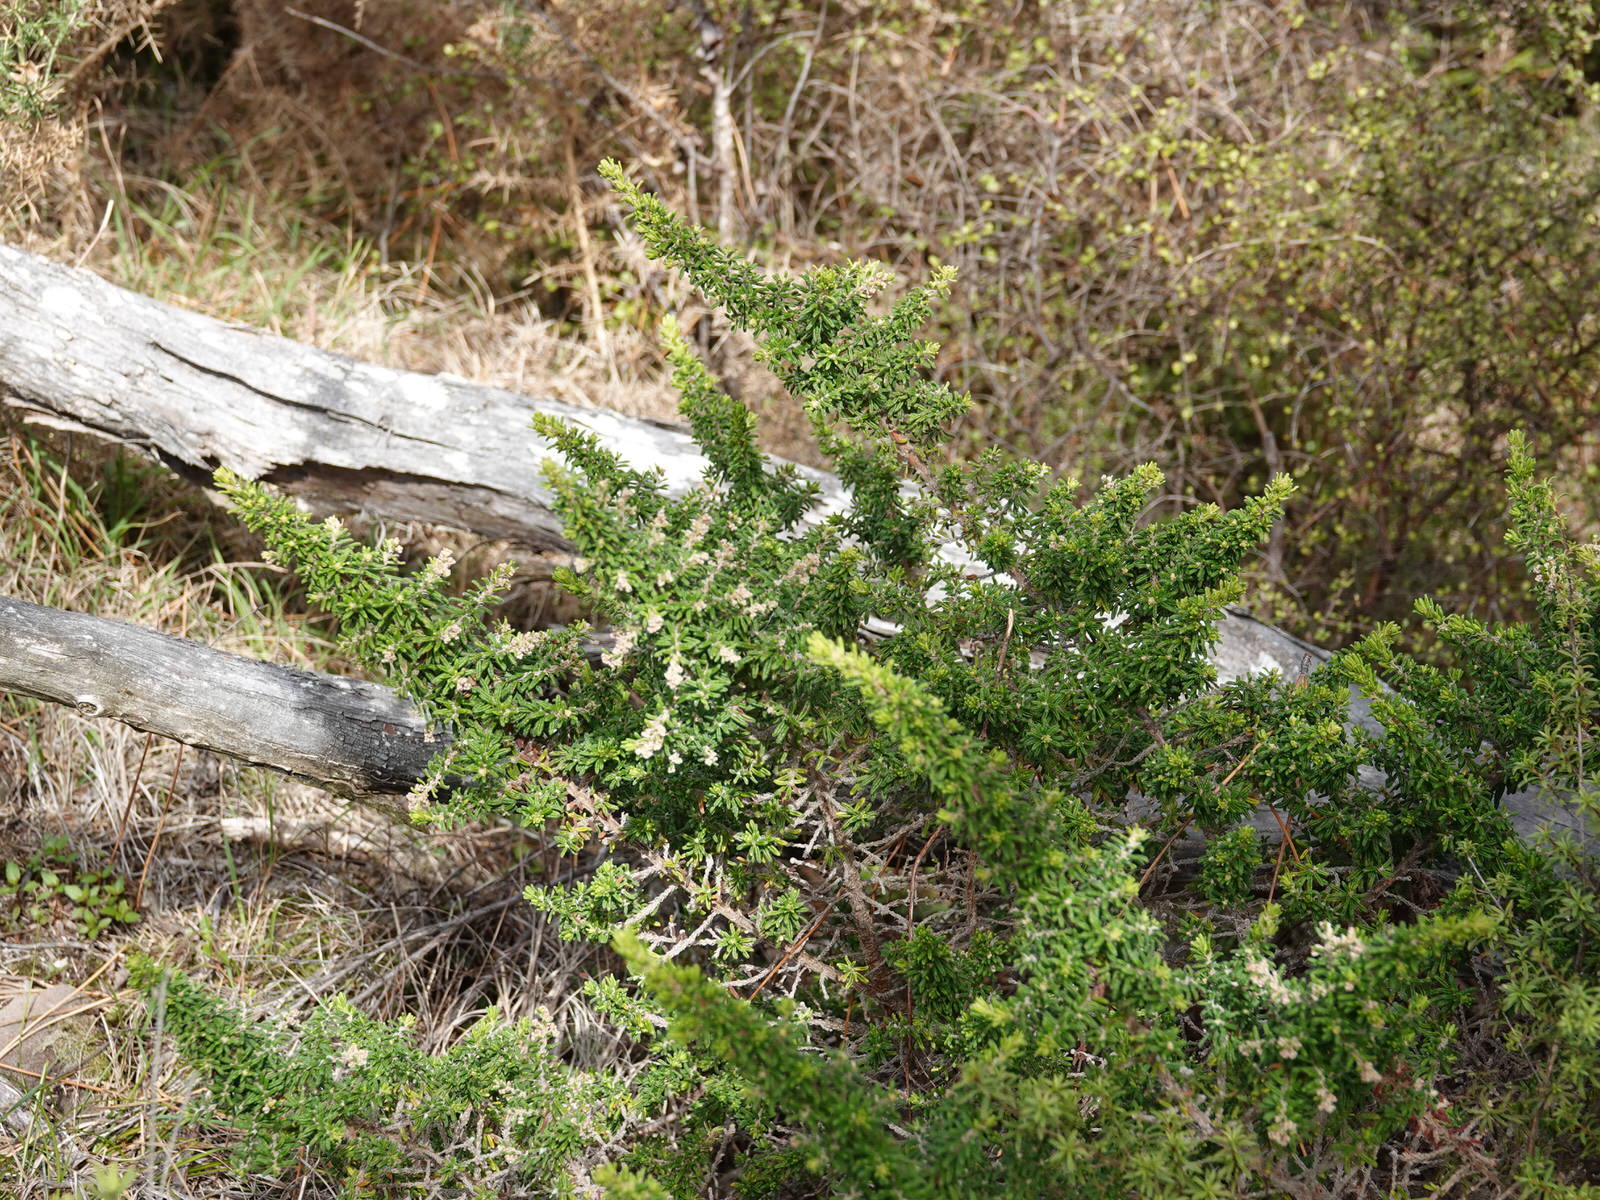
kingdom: Plantae
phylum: Tracheophyta
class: Magnoliopsida
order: Rosales
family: Rhamnaceae
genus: Pomaderris
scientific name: Pomaderris amoena
